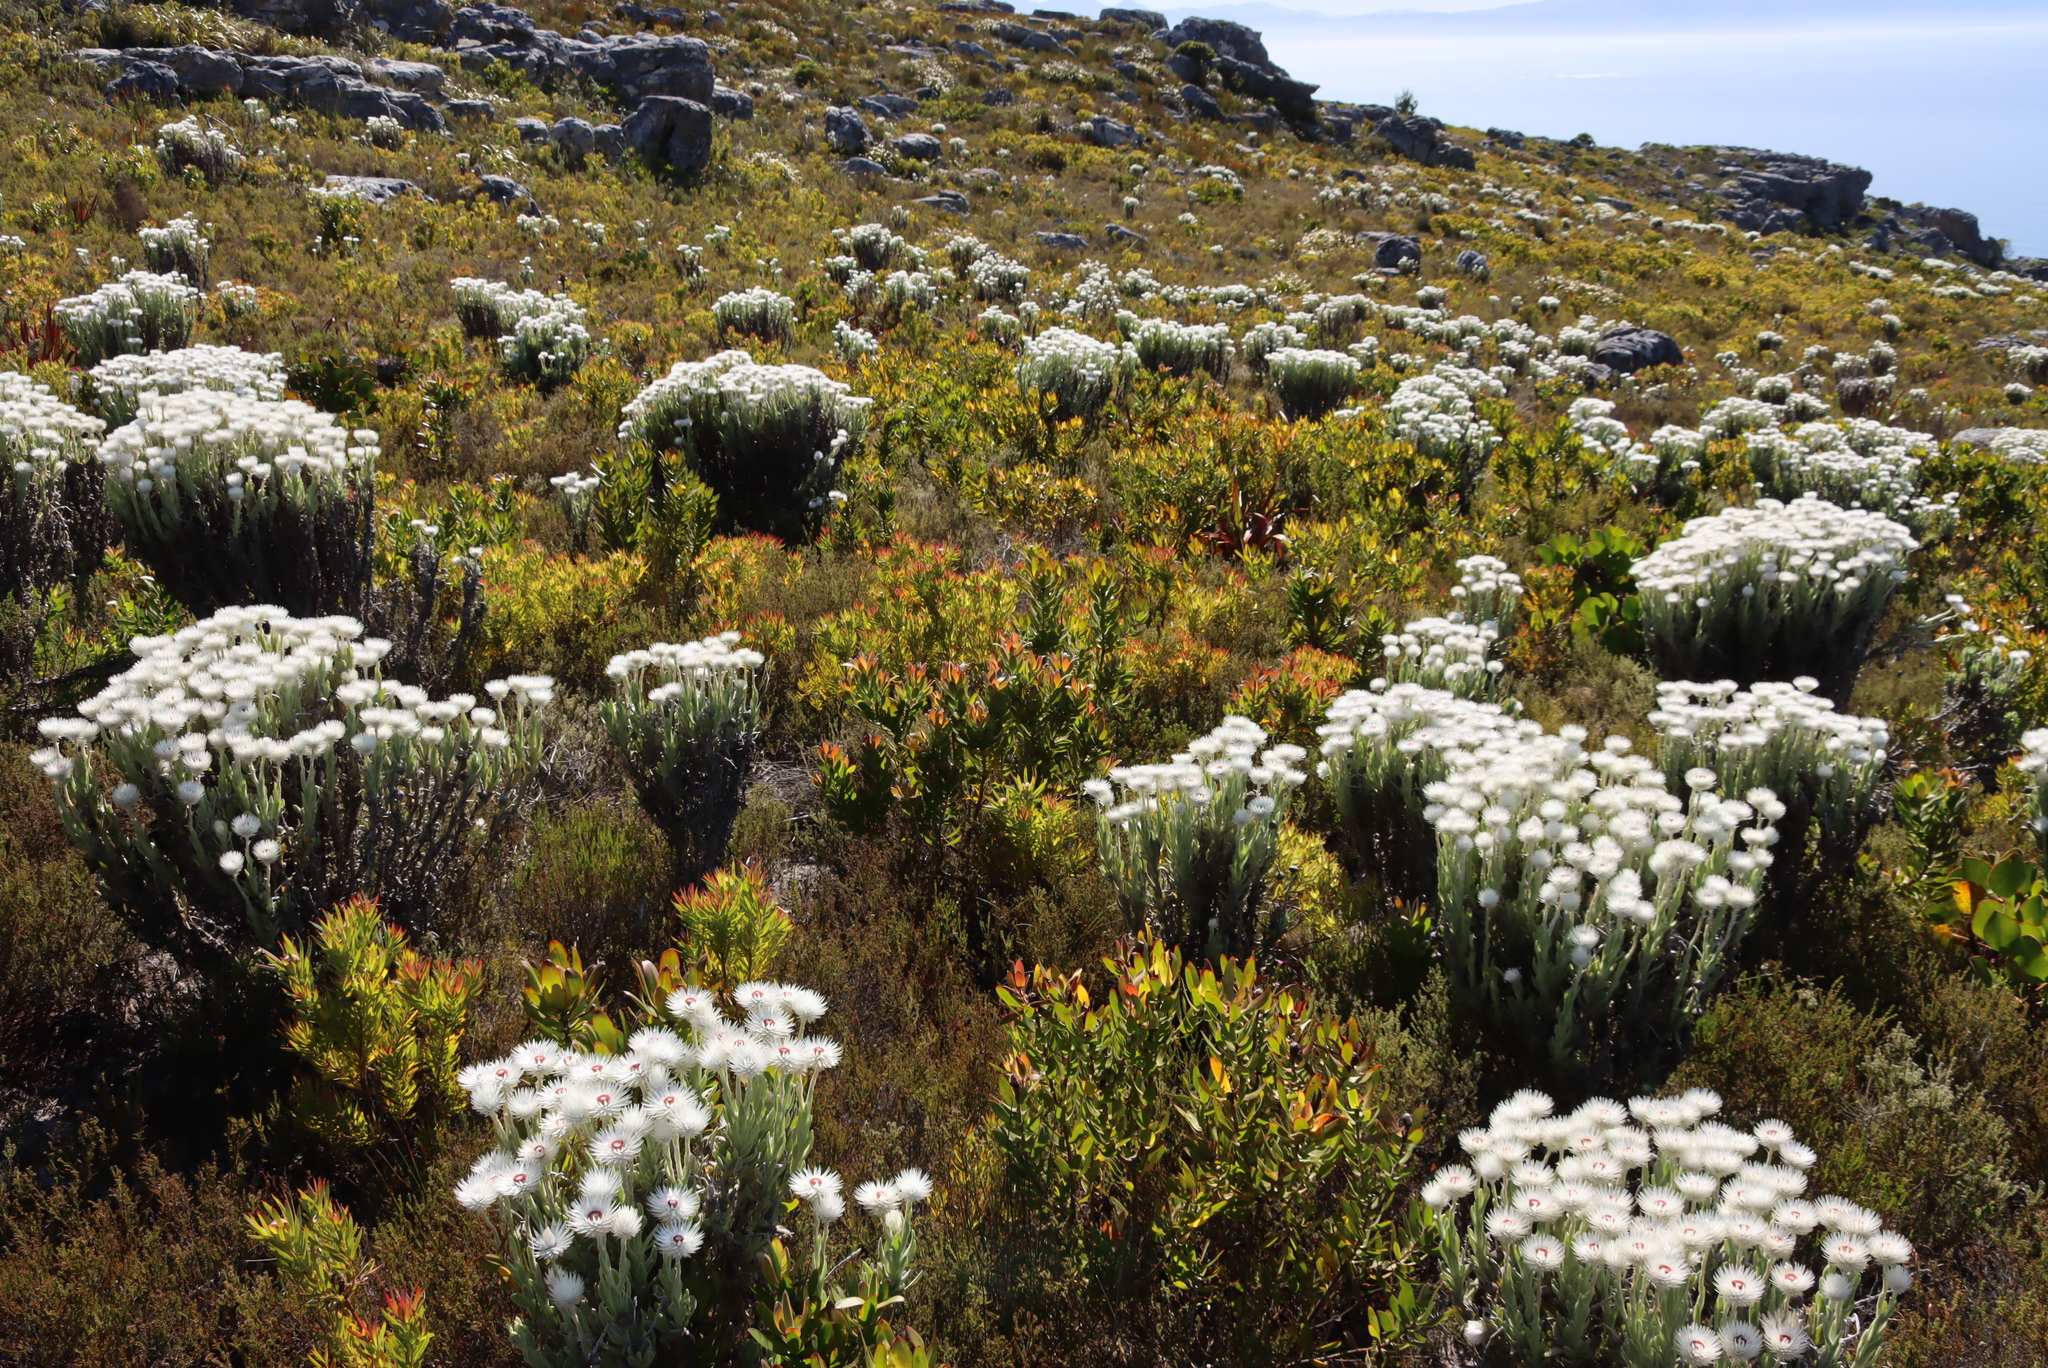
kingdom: Plantae
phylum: Tracheophyta
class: Magnoliopsida
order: Proteales
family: Proteaceae
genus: Leucadendron
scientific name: Leucadendron laureolum
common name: Golden sunshinebush
